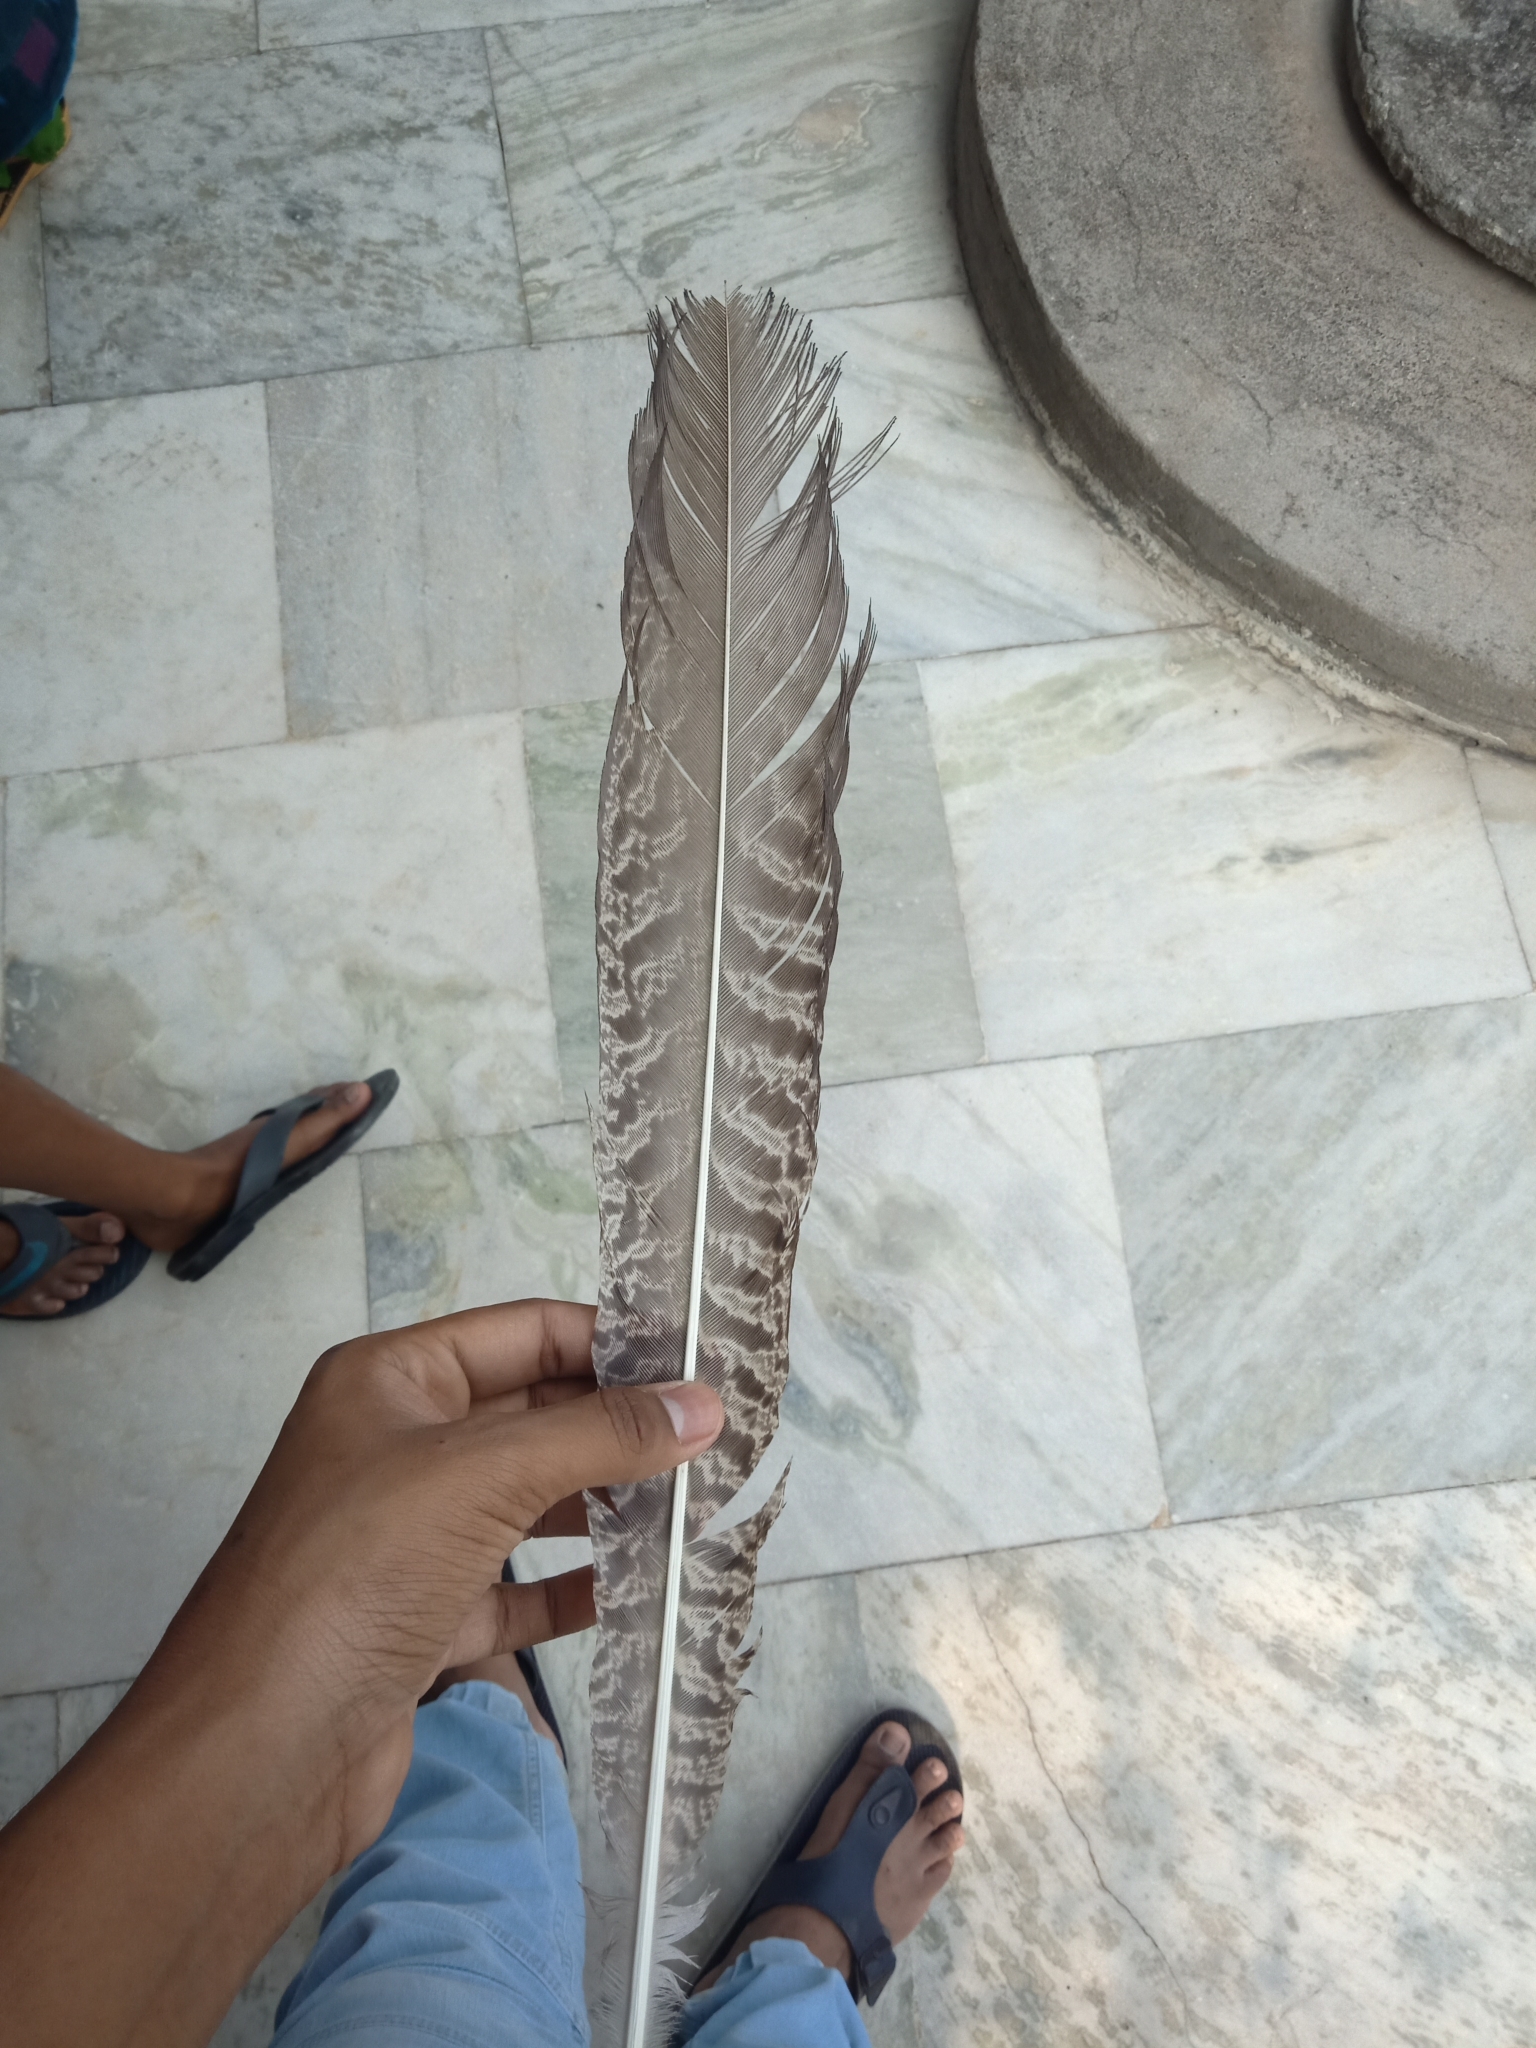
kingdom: Animalia
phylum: Chordata
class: Aves
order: Galliformes
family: Phasianidae
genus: Pavo
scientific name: Pavo cristatus
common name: Indian peafowl
